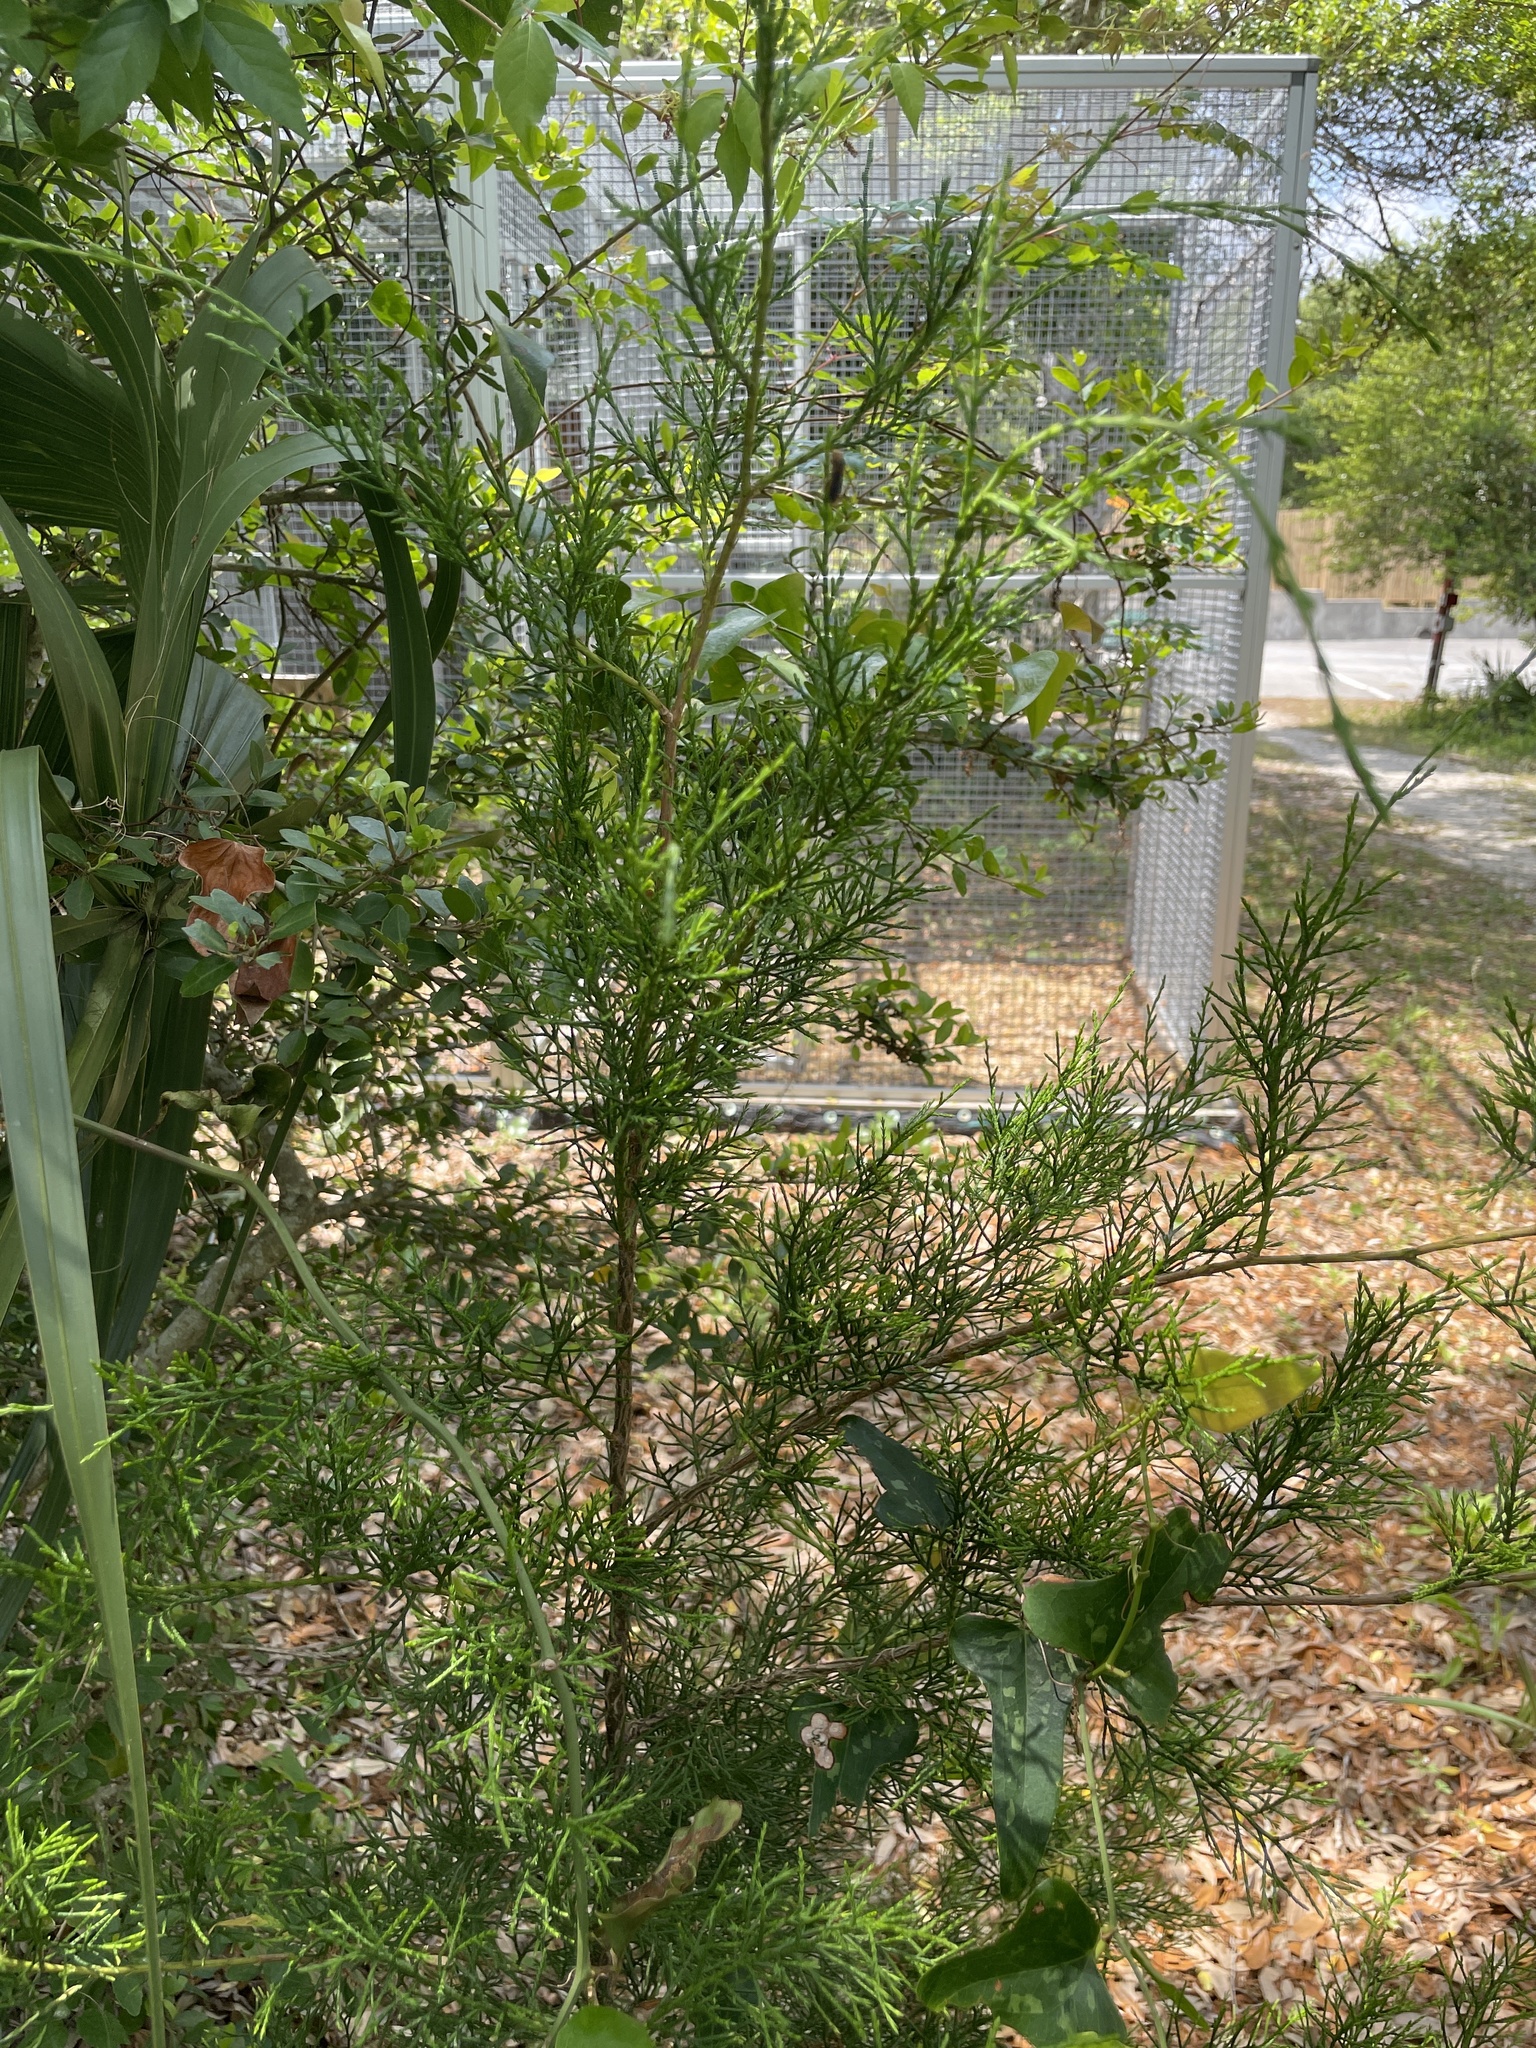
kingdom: Plantae
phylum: Tracheophyta
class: Pinopsida
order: Pinales
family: Cupressaceae
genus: Juniperus
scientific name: Juniperus virginiana
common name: Red juniper
